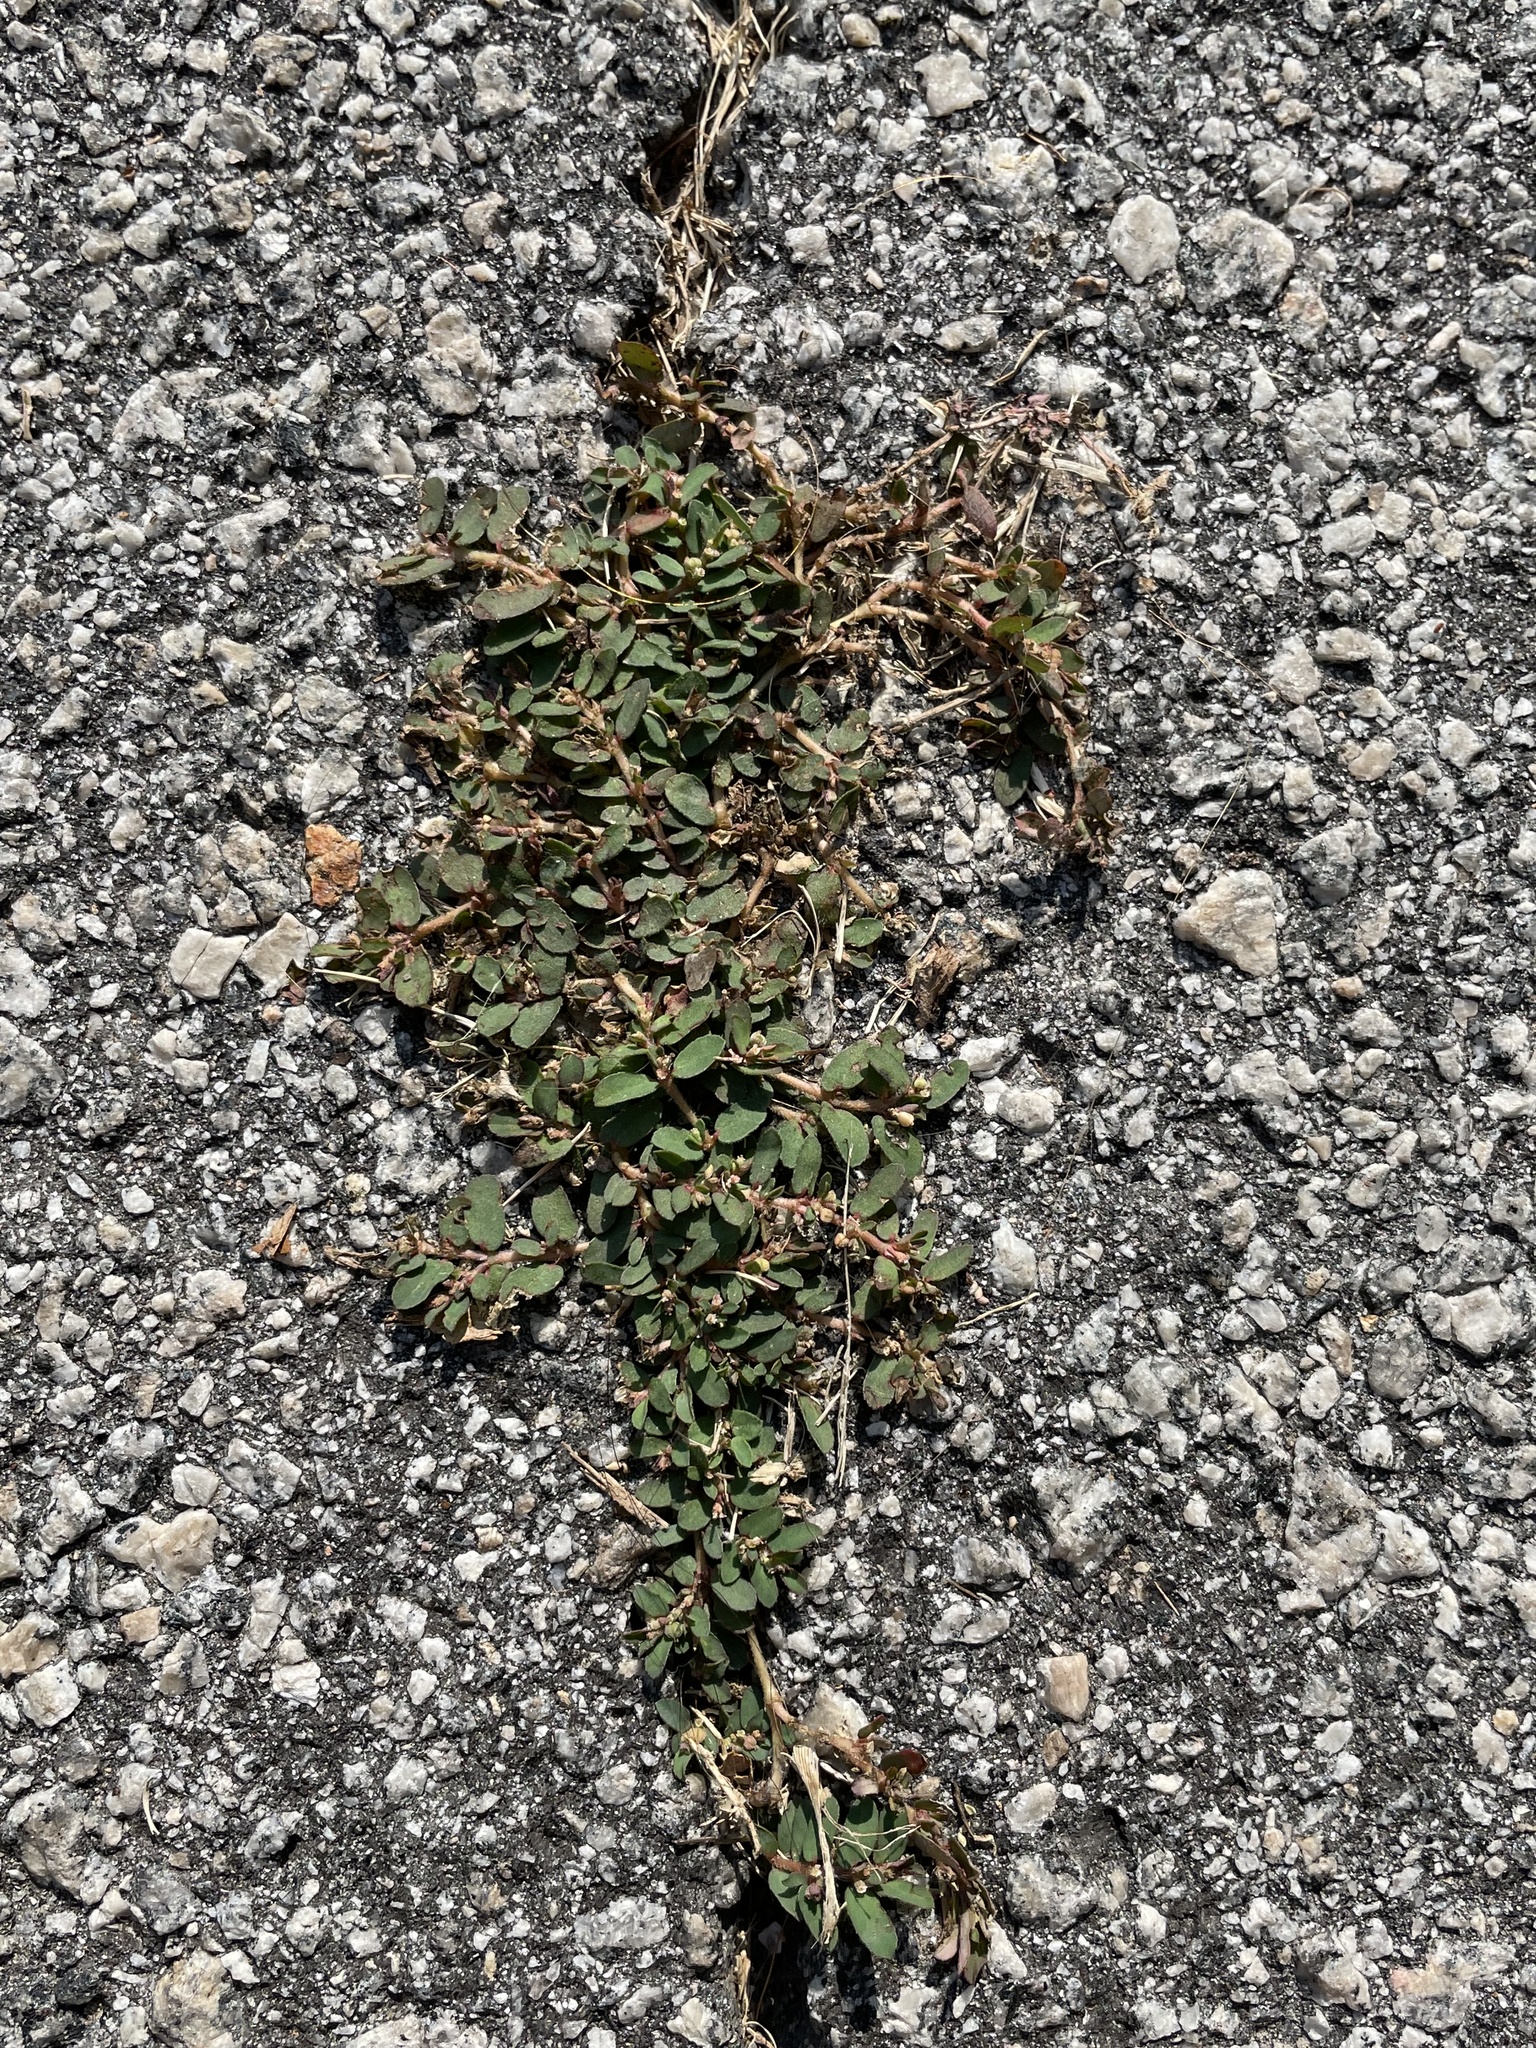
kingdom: Plantae
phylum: Tracheophyta
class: Magnoliopsida
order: Malpighiales
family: Euphorbiaceae
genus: Euphorbia
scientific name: Euphorbia maculata
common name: Spotted spurge
